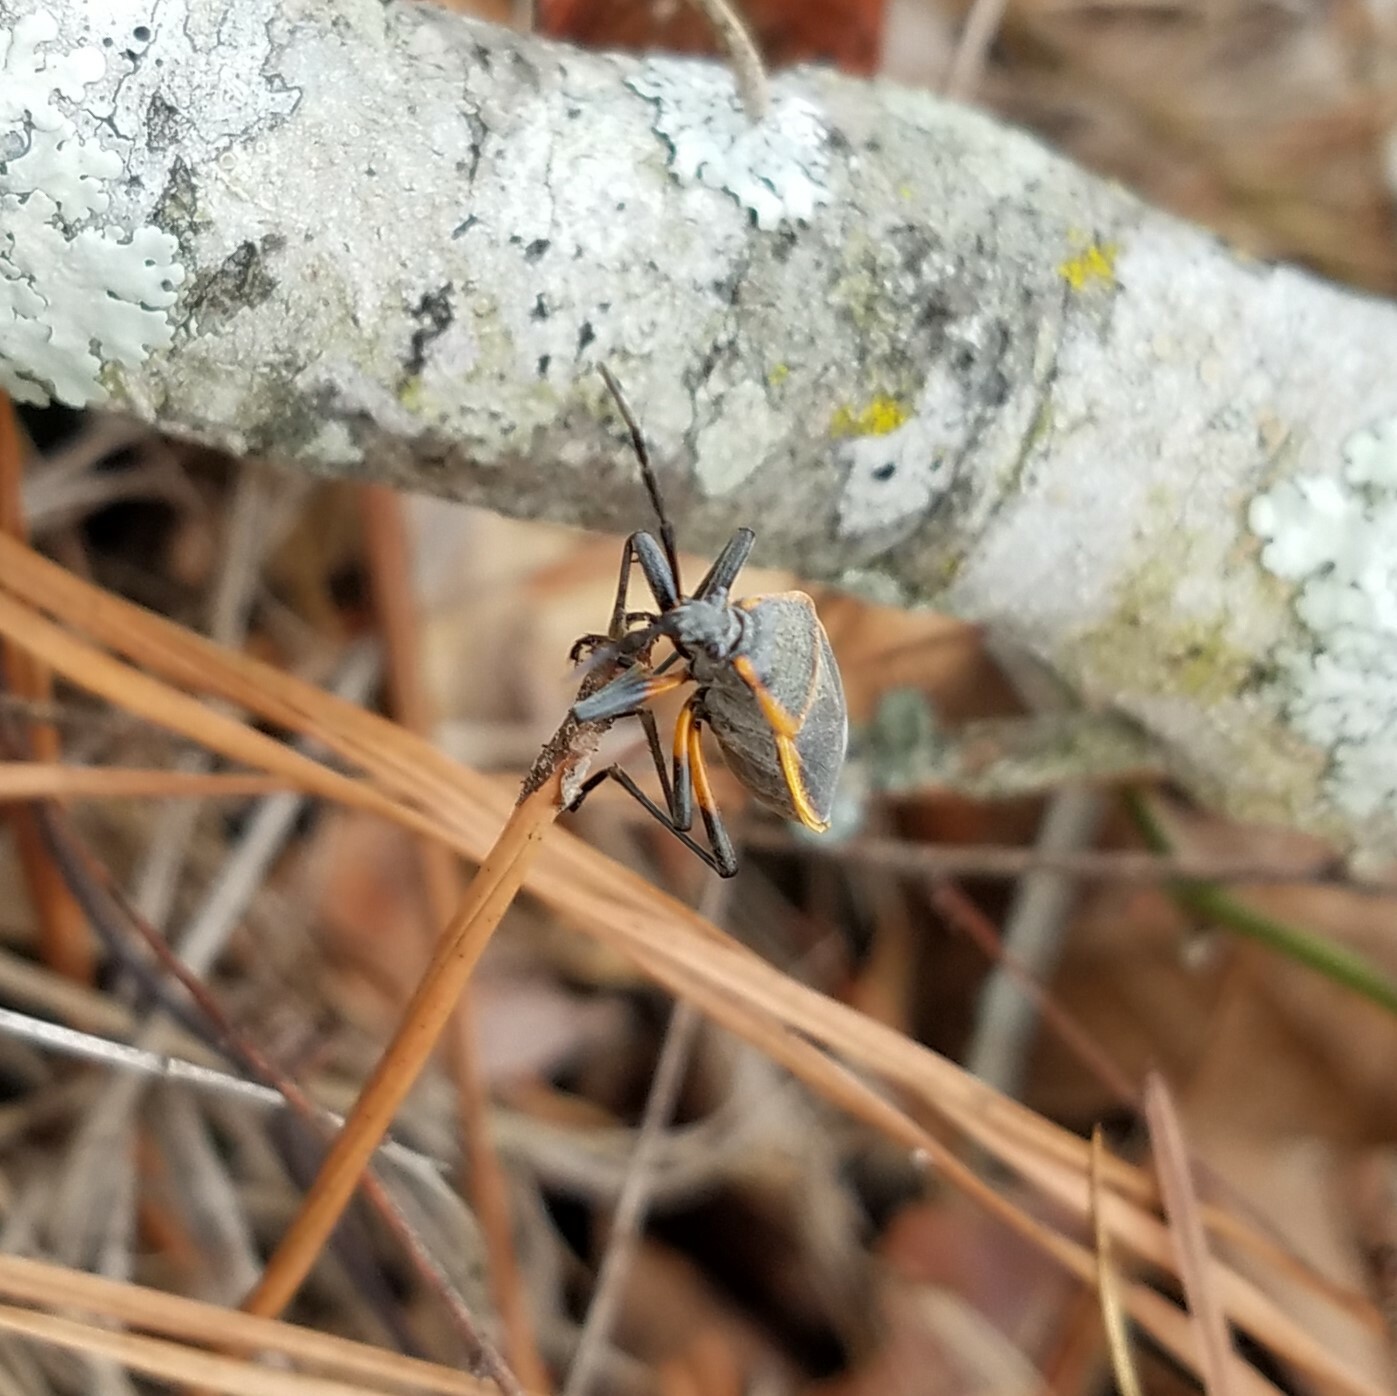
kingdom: Animalia
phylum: Arthropoda
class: Insecta
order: Hemiptera
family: Largidae
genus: Largus
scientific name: Largus succinctus
